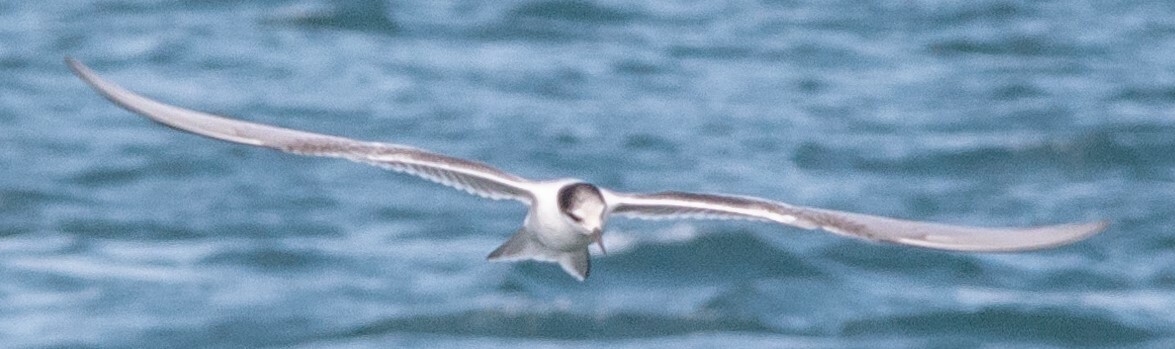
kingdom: Animalia
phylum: Chordata
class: Aves
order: Charadriiformes
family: Laridae
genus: Sterna
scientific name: Sterna hirundo
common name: Common tern
